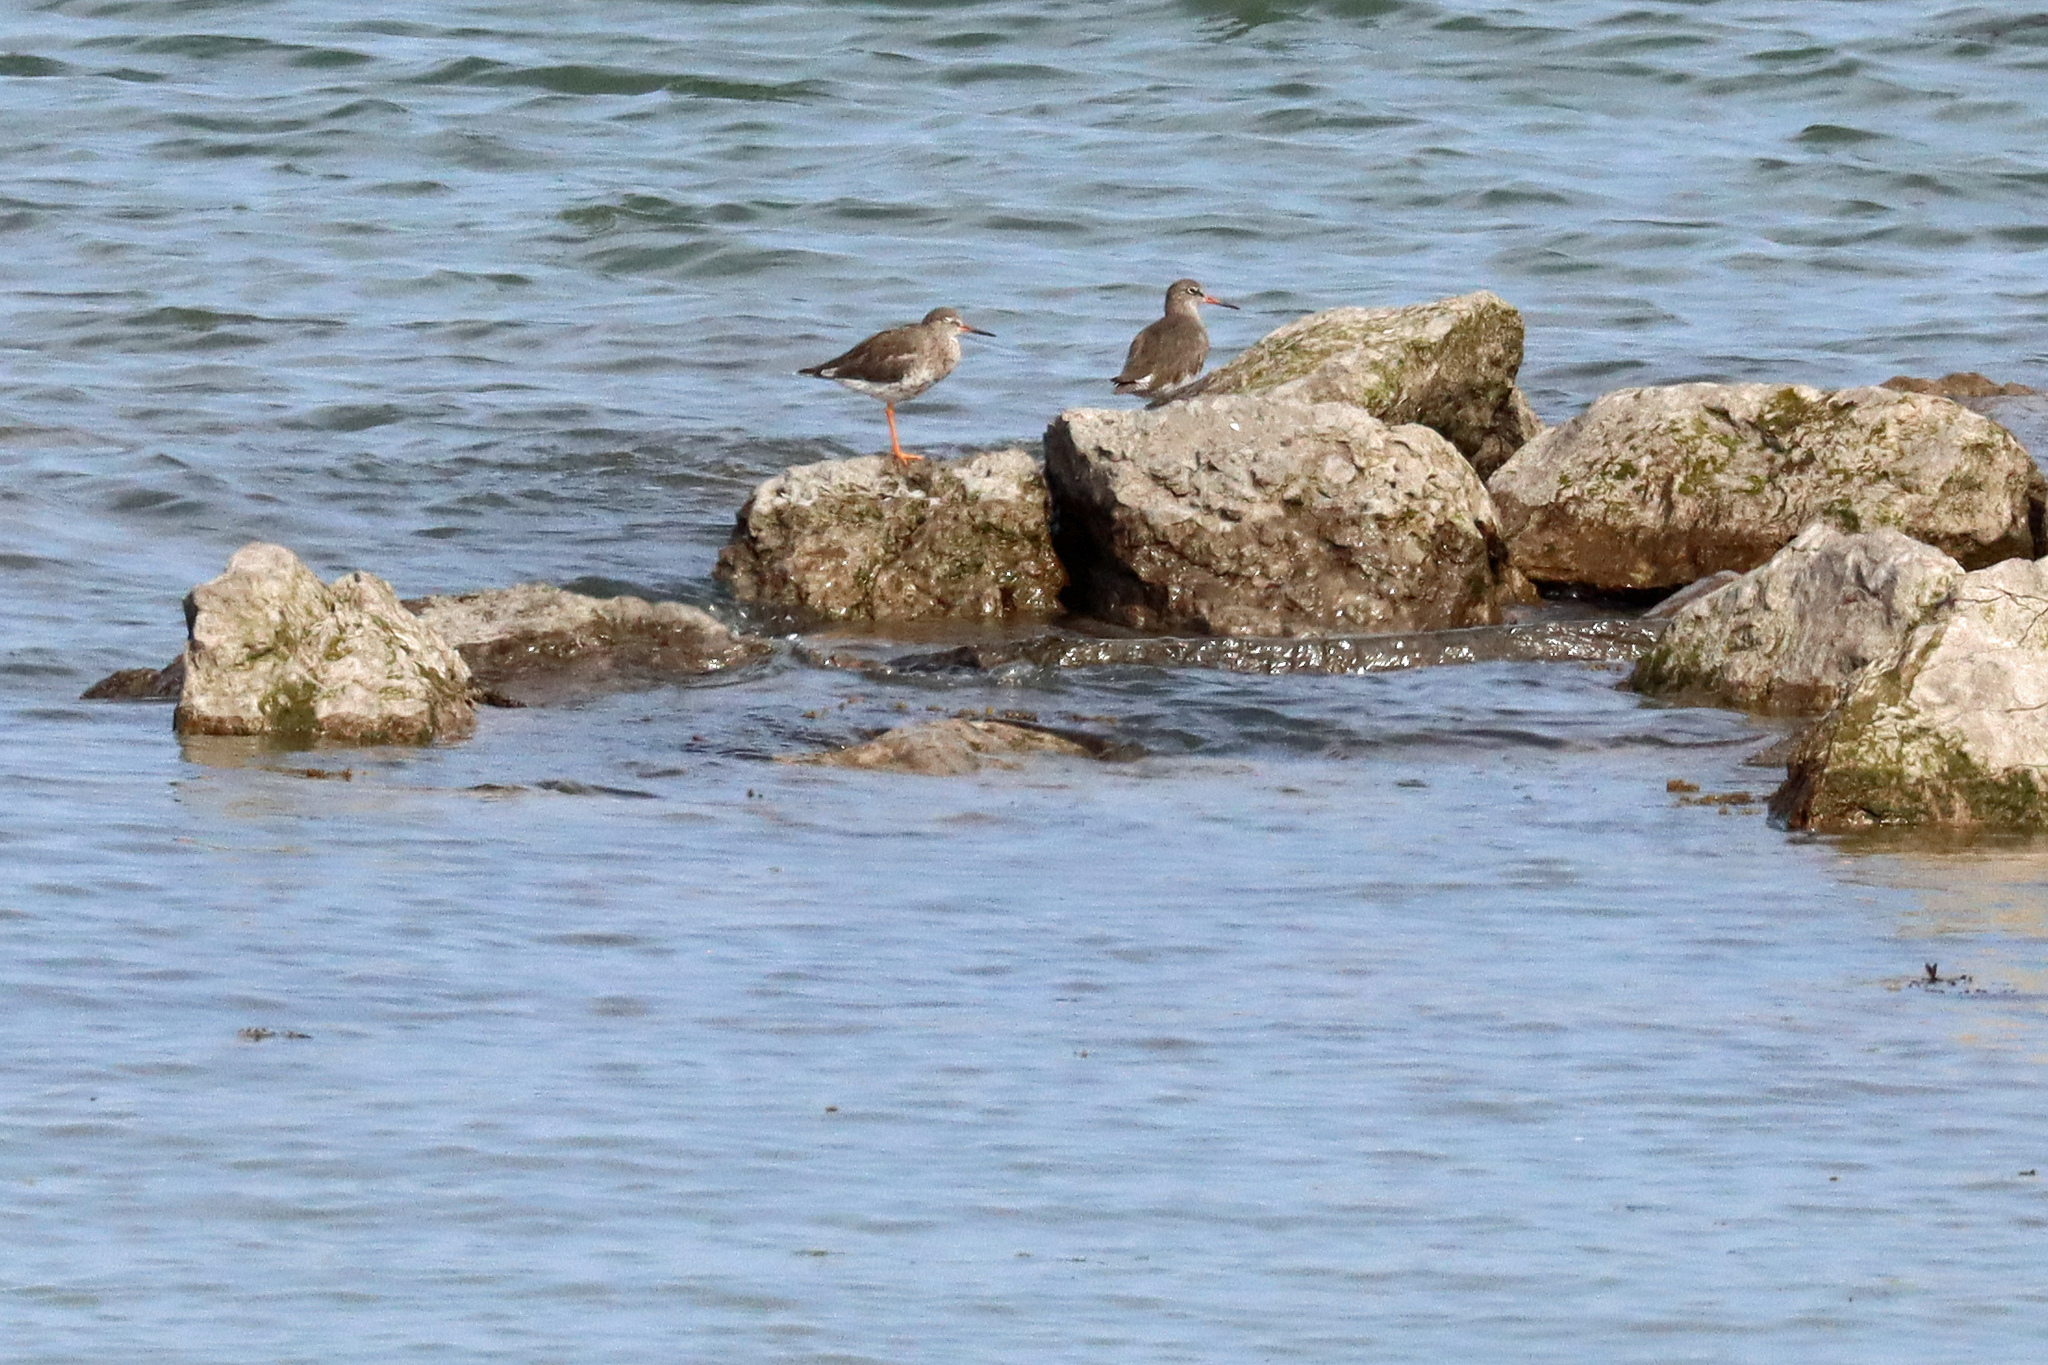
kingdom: Animalia
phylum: Chordata
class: Aves
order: Charadriiformes
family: Scolopacidae
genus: Tringa
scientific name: Tringa totanus
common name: Common redshank
